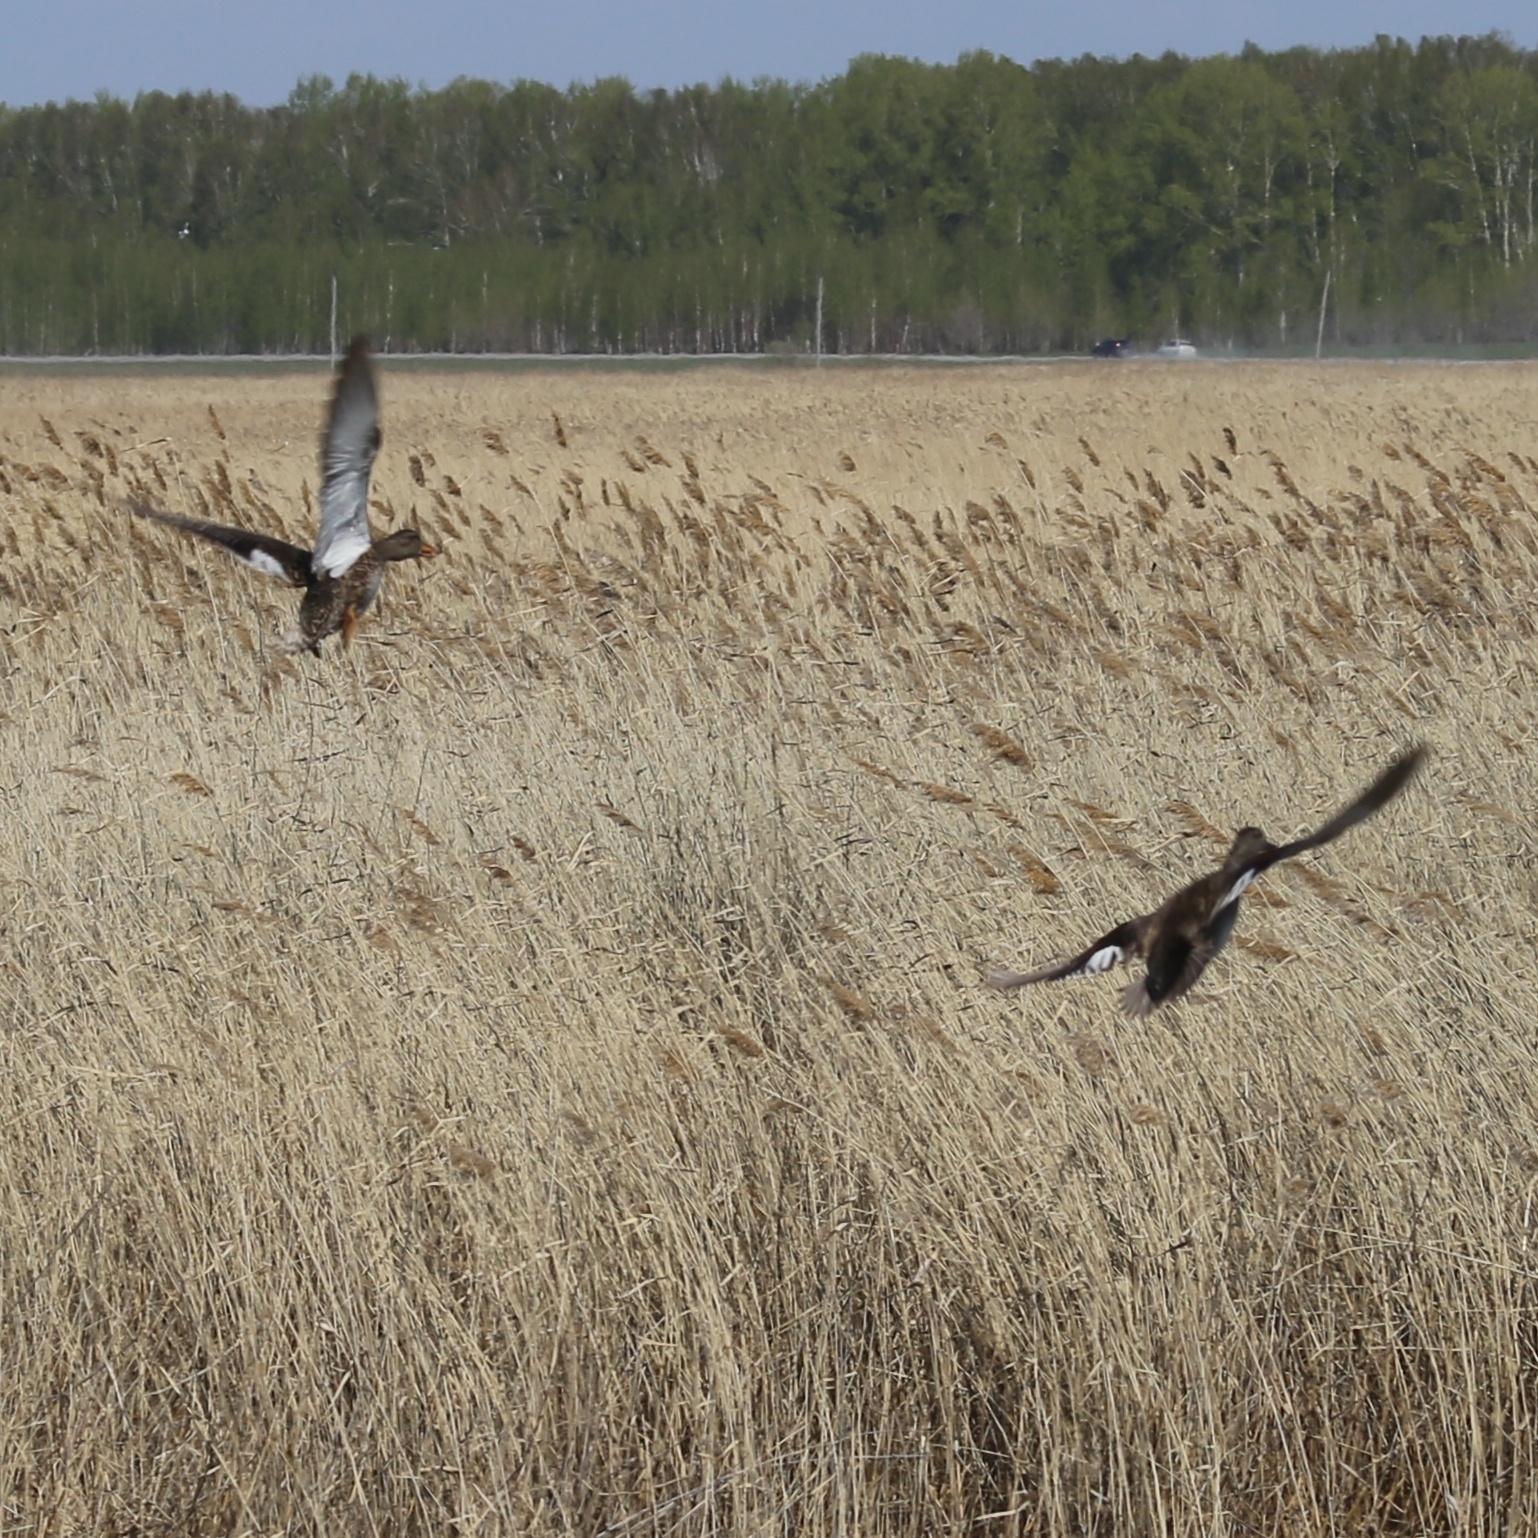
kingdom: Animalia
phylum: Chordata
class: Aves
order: Anseriformes
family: Anatidae
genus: Mareca
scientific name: Mareca strepera
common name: Gadwall
